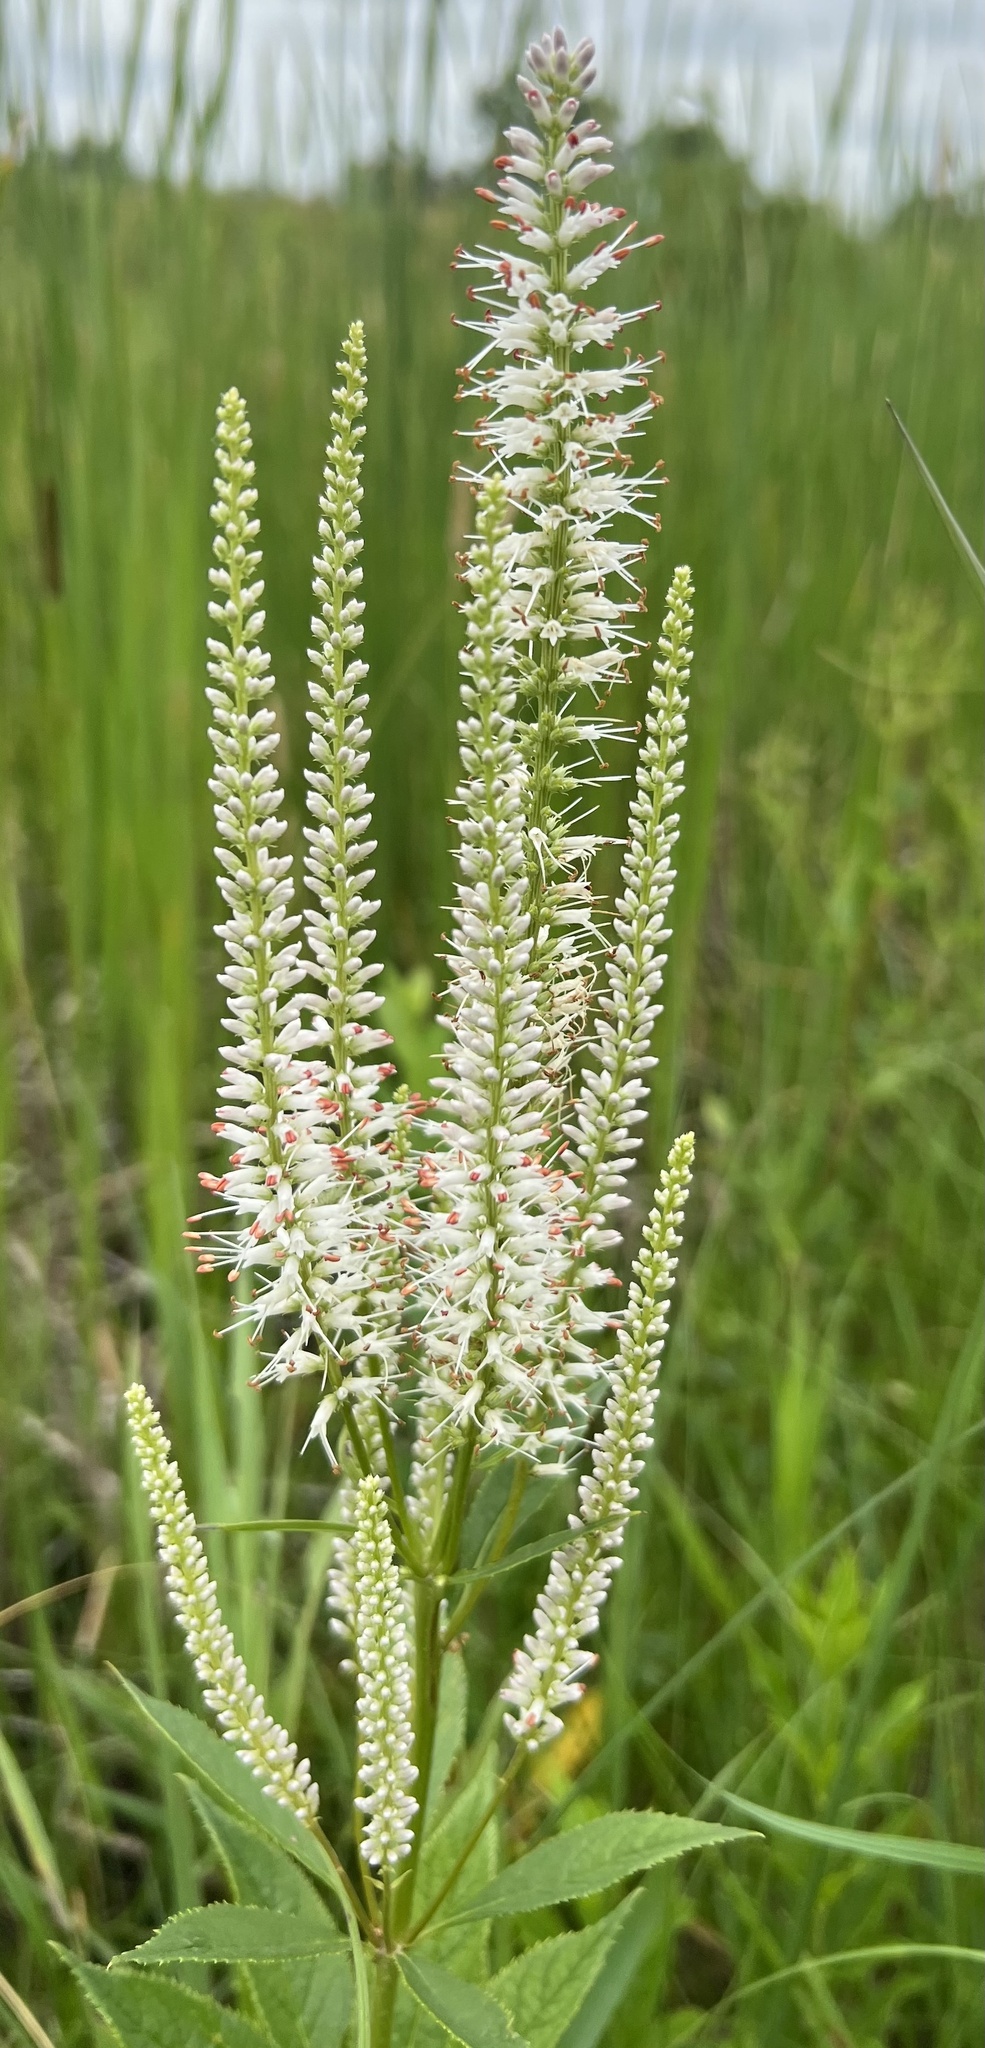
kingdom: Plantae
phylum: Tracheophyta
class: Magnoliopsida
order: Lamiales
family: Plantaginaceae
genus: Veronicastrum
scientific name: Veronicastrum virginicum
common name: Blackroot
